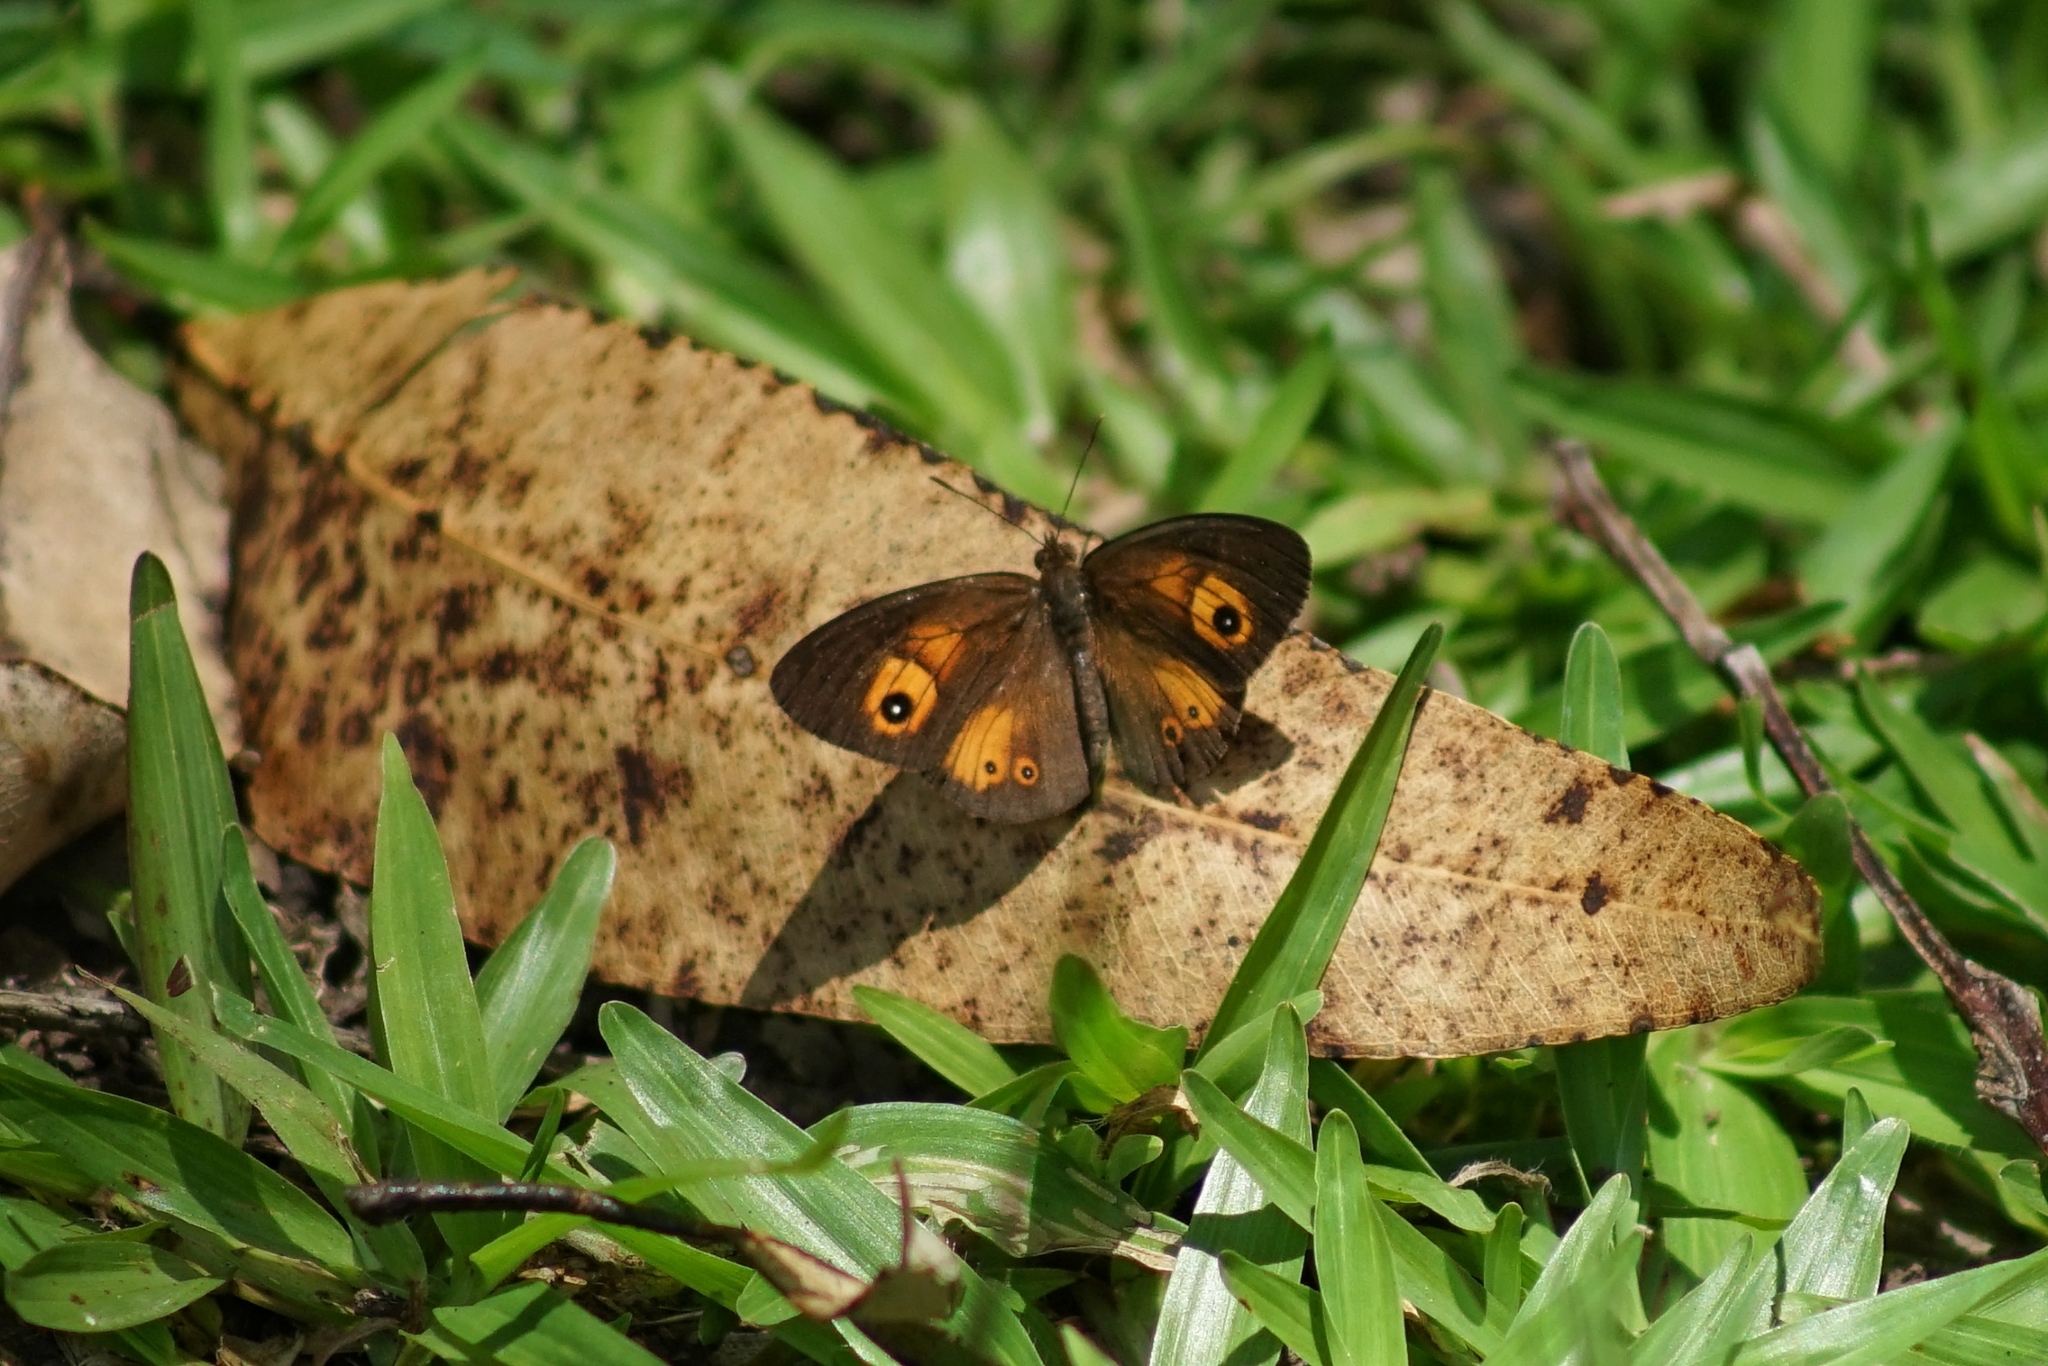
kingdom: Animalia
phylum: Arthropoda
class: Insecta
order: Lepidoptera
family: Nymphalidae
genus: Henotesia
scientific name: Henotesia narcissus
